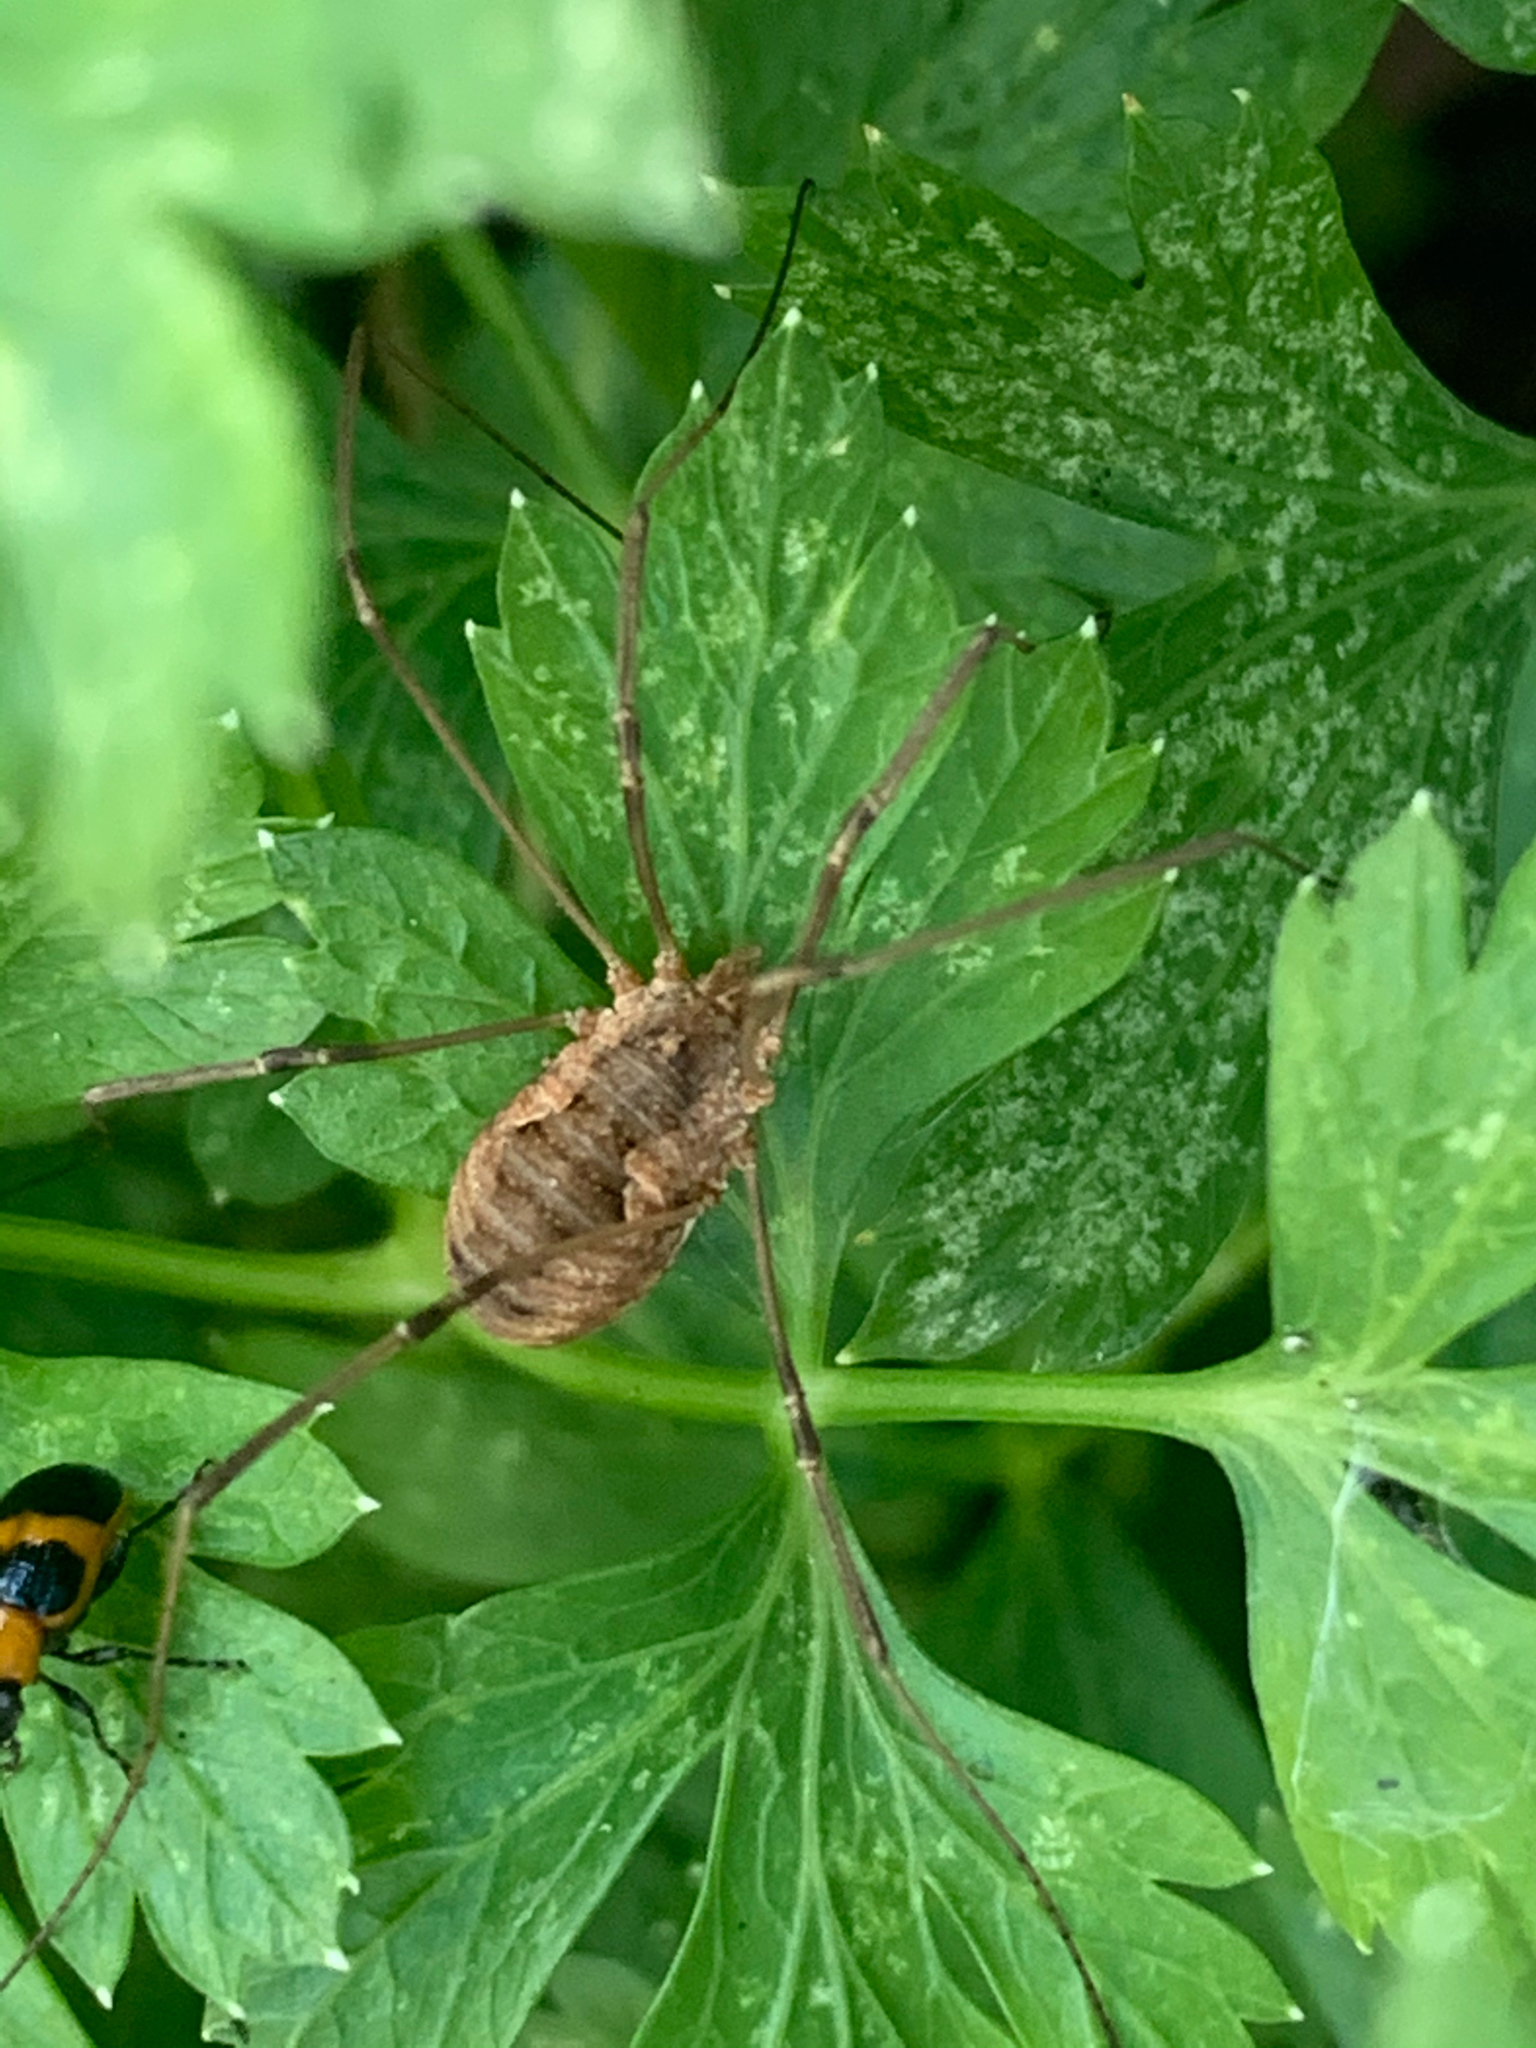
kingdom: Animalia
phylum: Arthropoda
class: Arachnida
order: Opiliones
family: Phalangiidae
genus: Phalangium
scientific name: Phalangium opilio
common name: Daddy longleg
